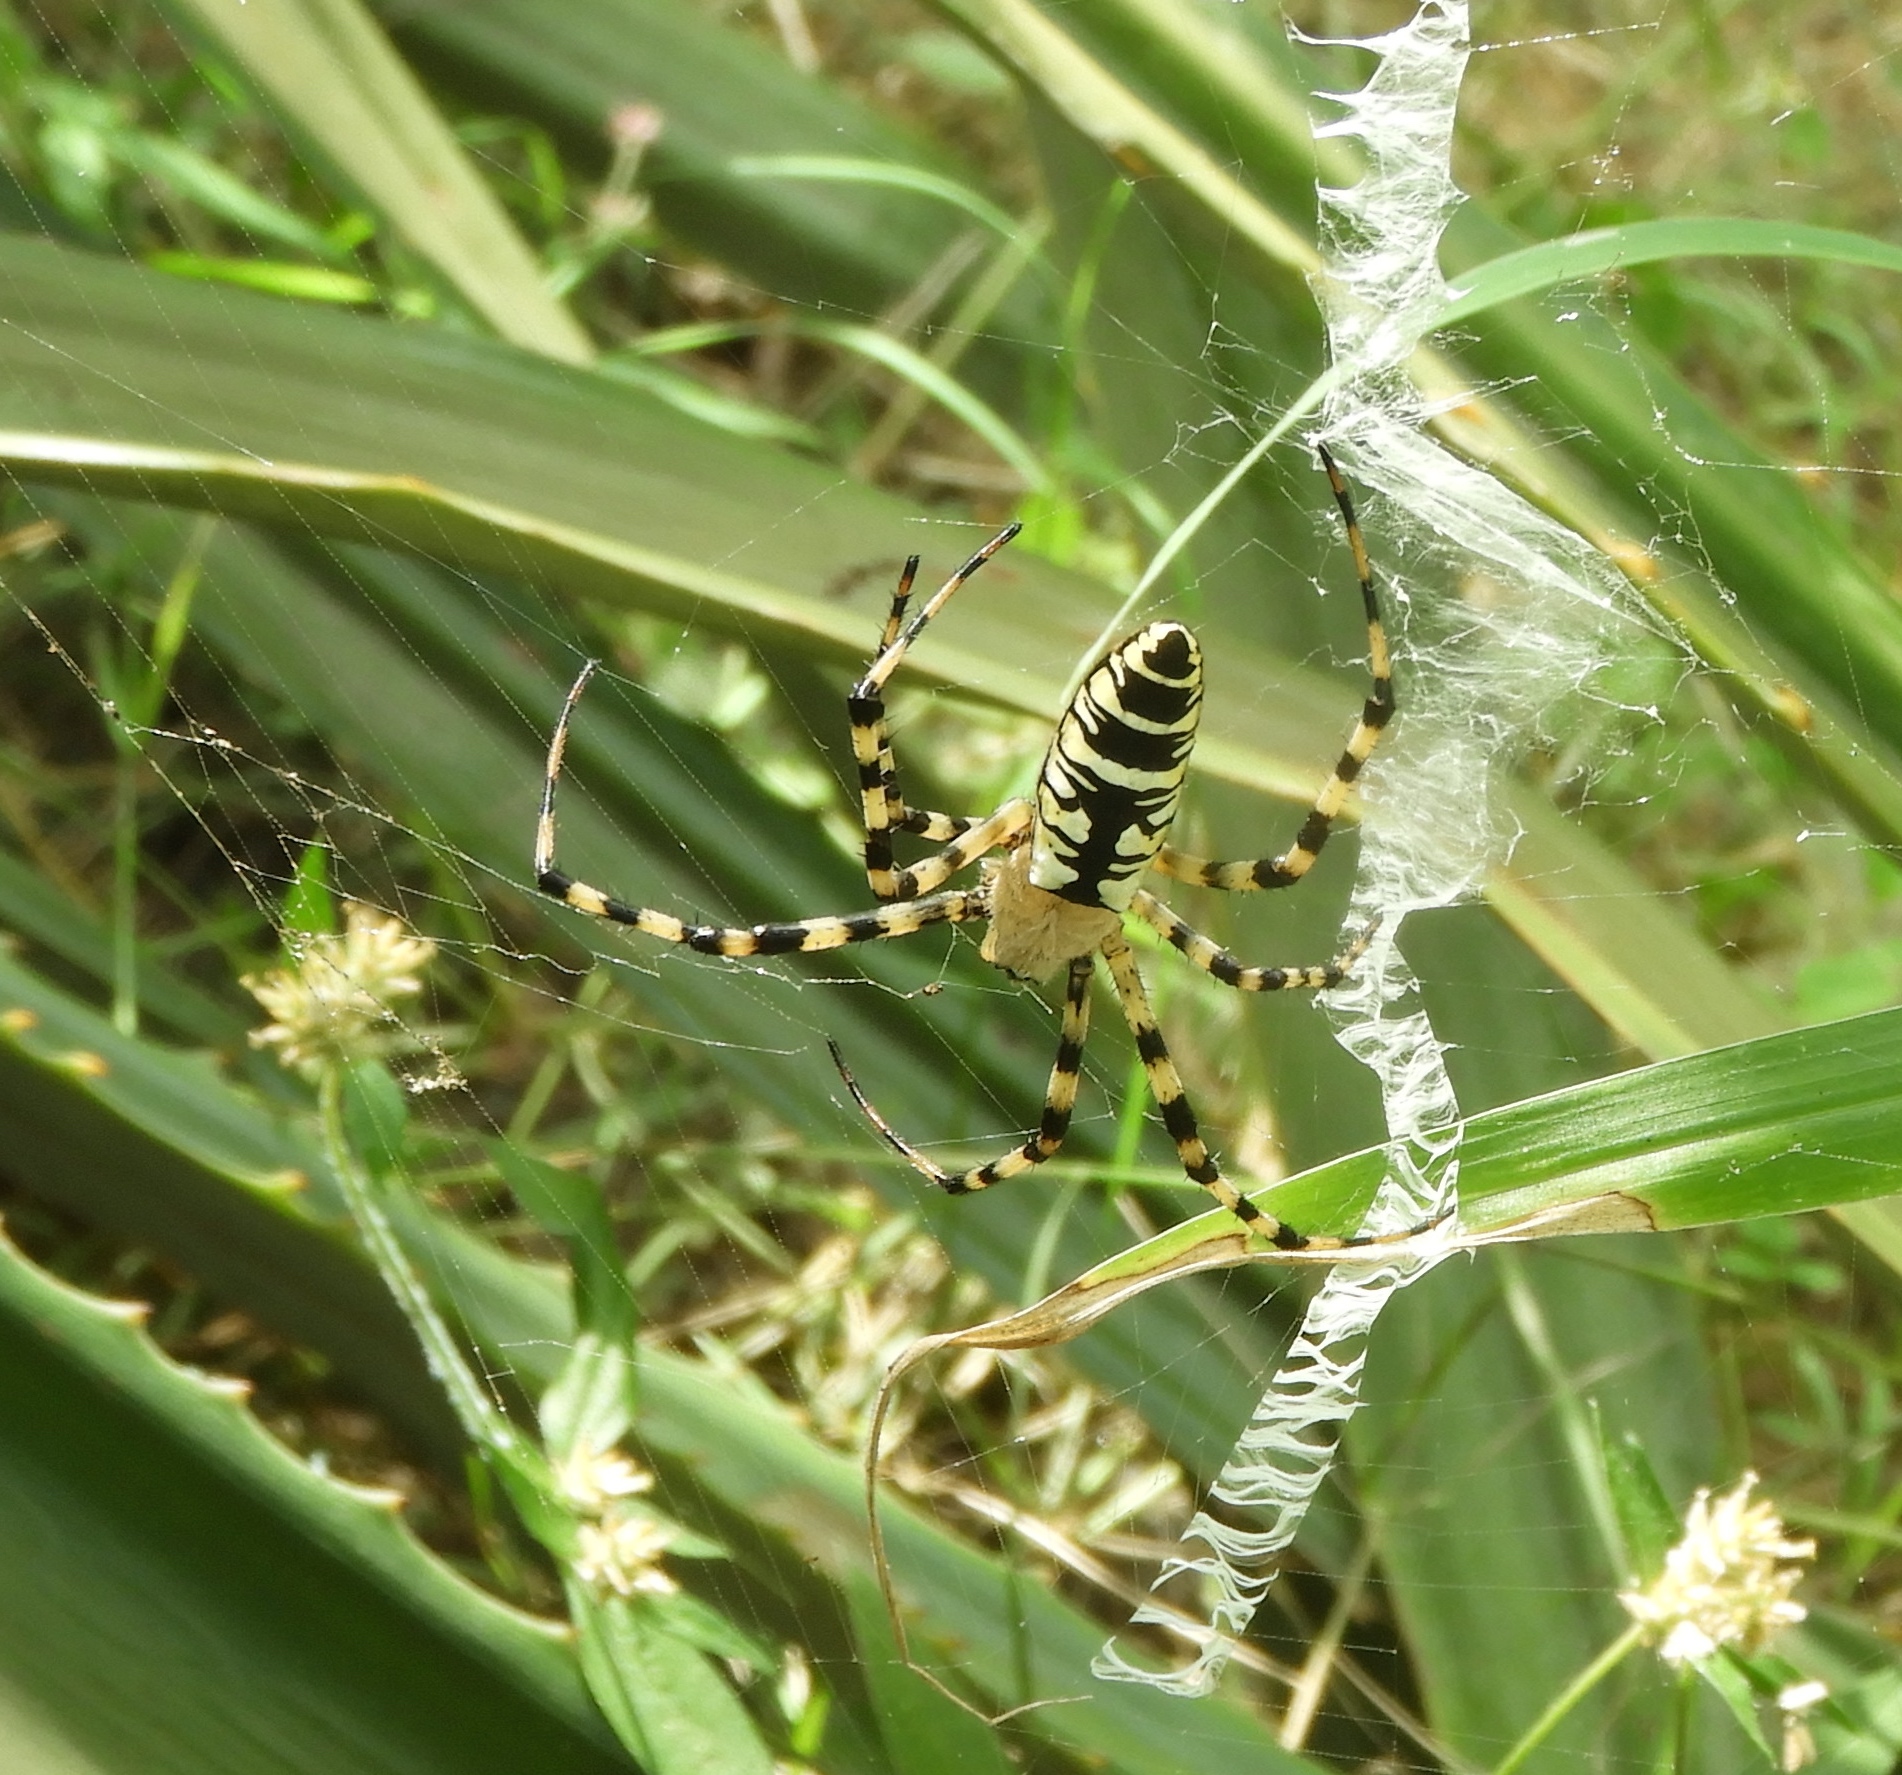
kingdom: Animalia
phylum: Arthropoda
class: Arachnida
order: Araneae
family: Araneidae
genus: Argiope
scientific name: Argiope aurantia
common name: Orb weavers
